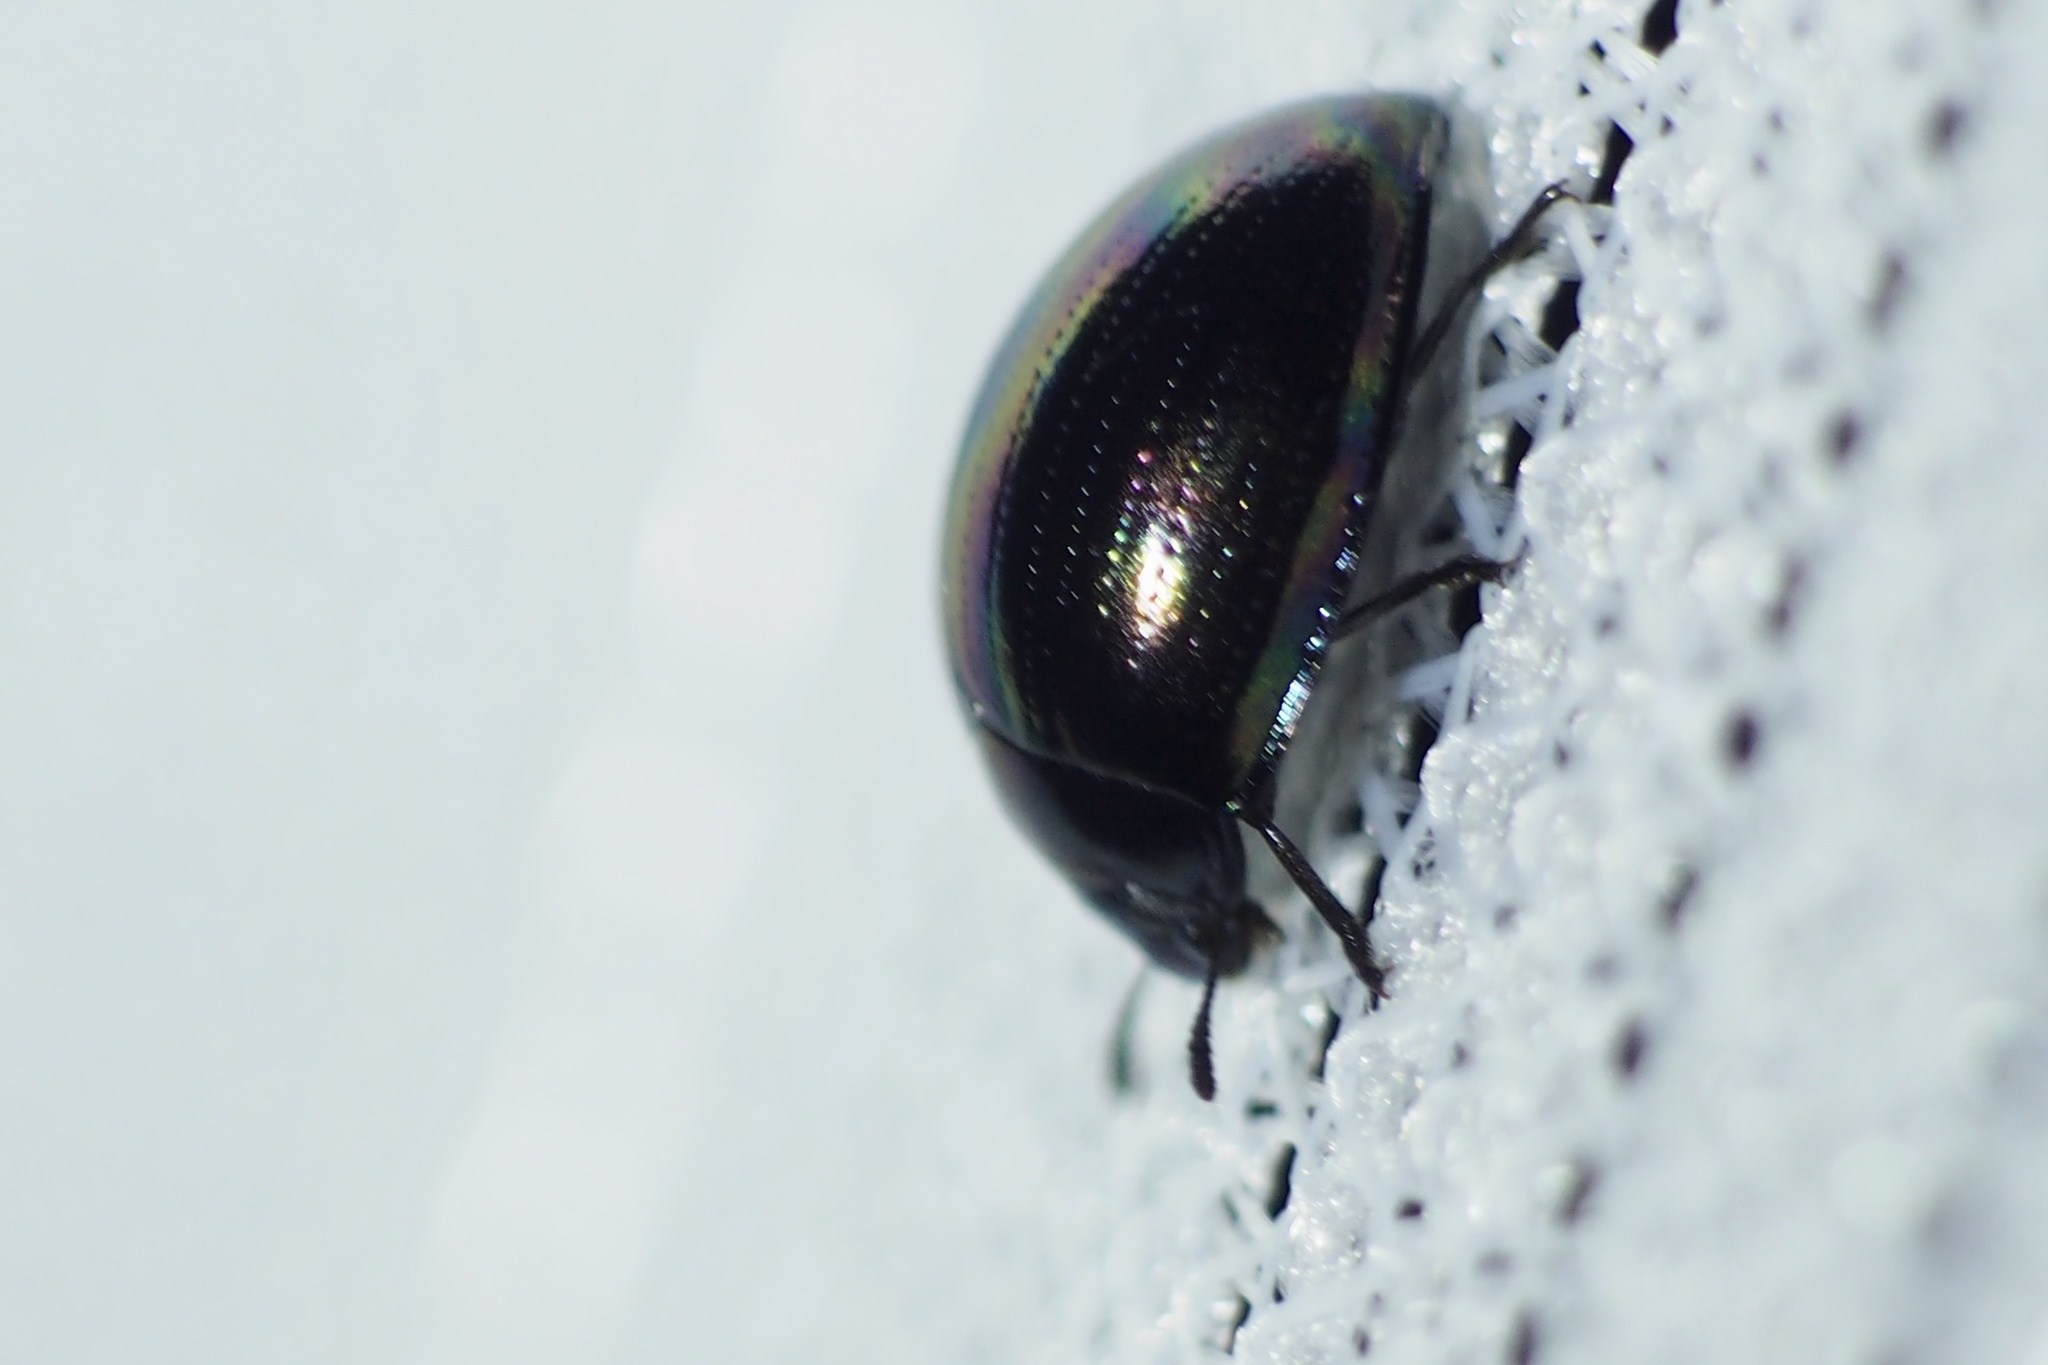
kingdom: Animalia
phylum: Arthropoda
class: Insecta
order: Coleoptera
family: Tenebrionidae
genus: Tetraphyllus
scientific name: Tetraphyllus
